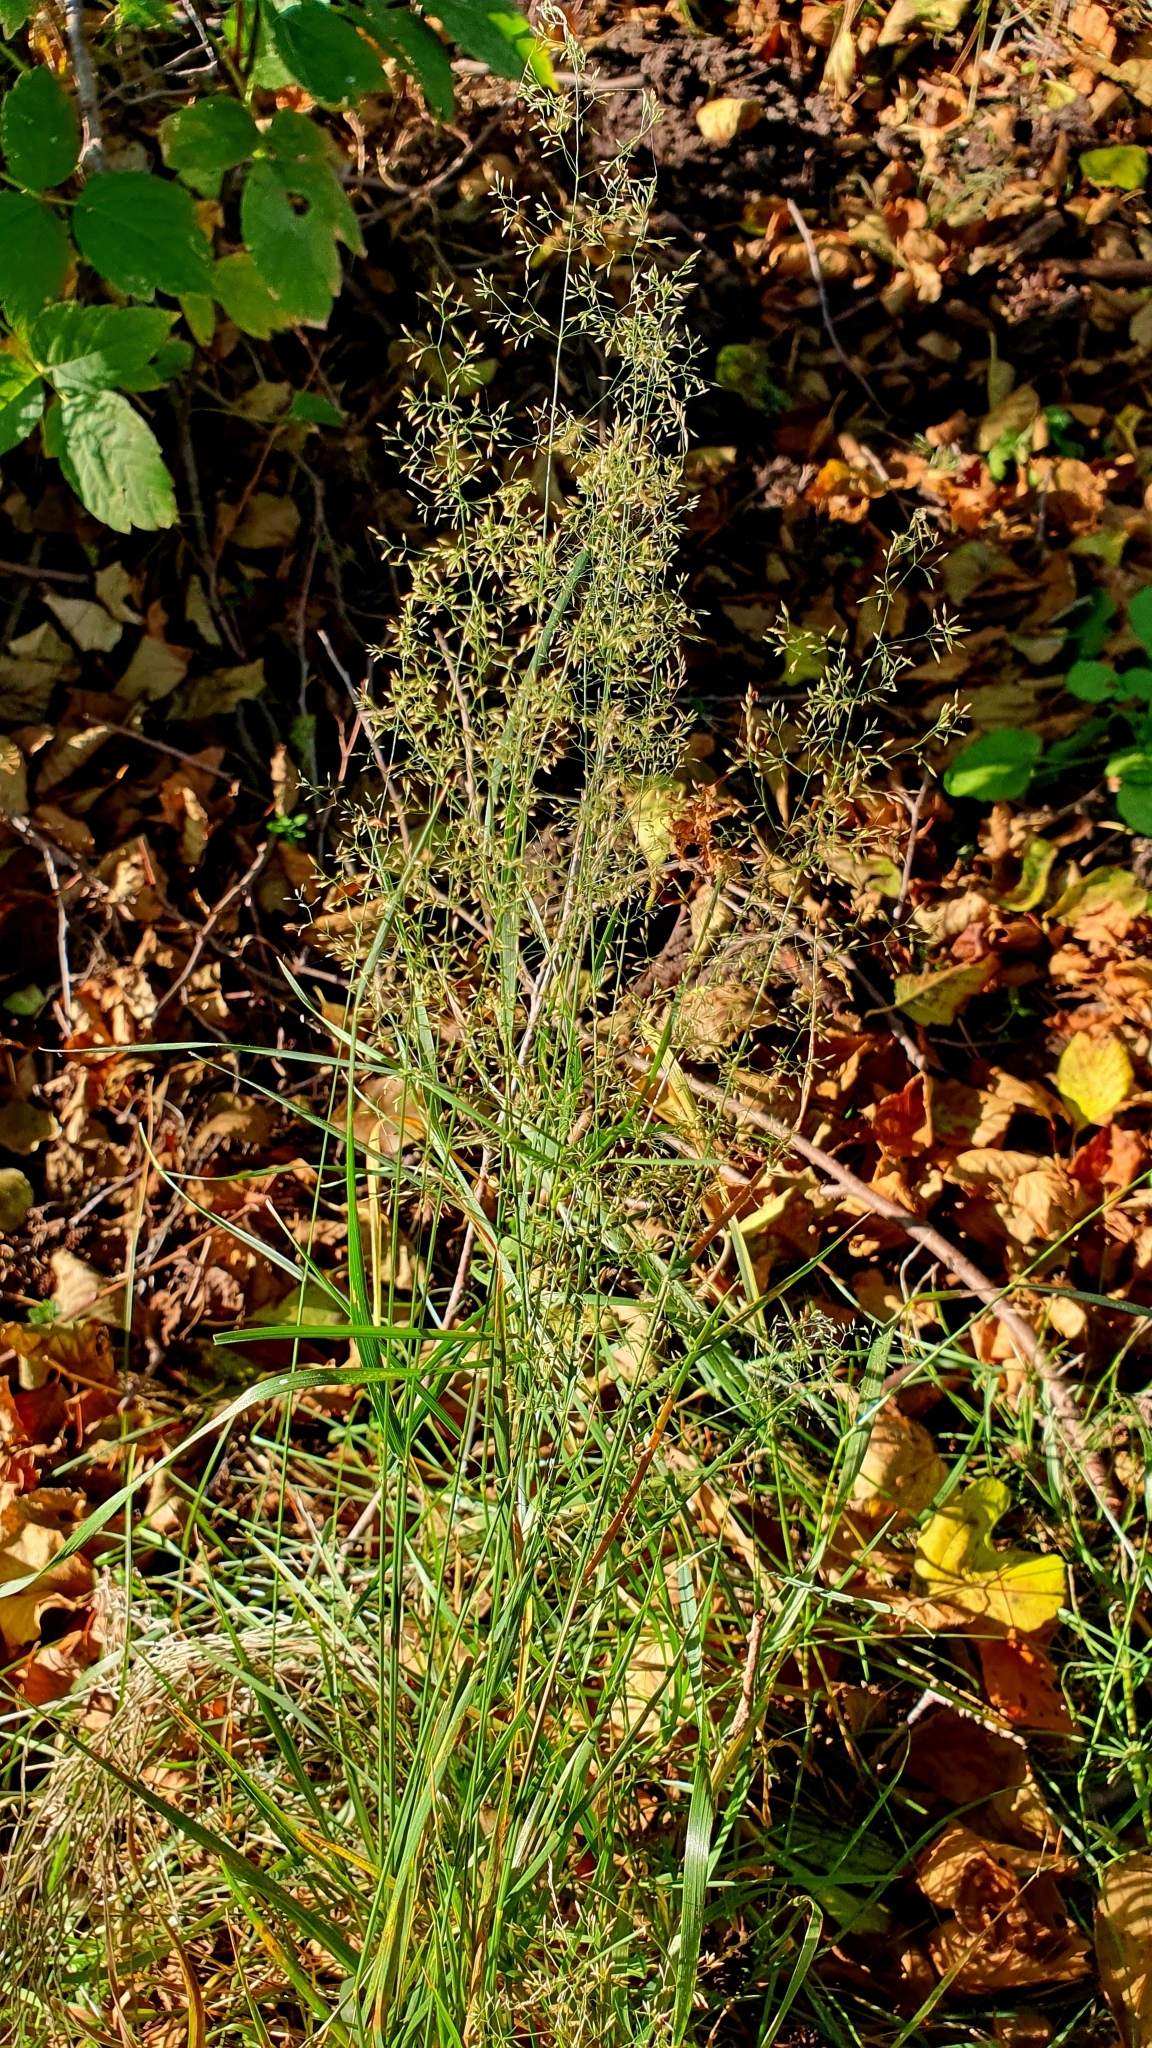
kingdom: Plantae
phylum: Tracheophyta
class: Liliopsida
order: Poales
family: Poaceae
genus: Poa
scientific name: Poa palustris
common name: Swamp meadow-grass
